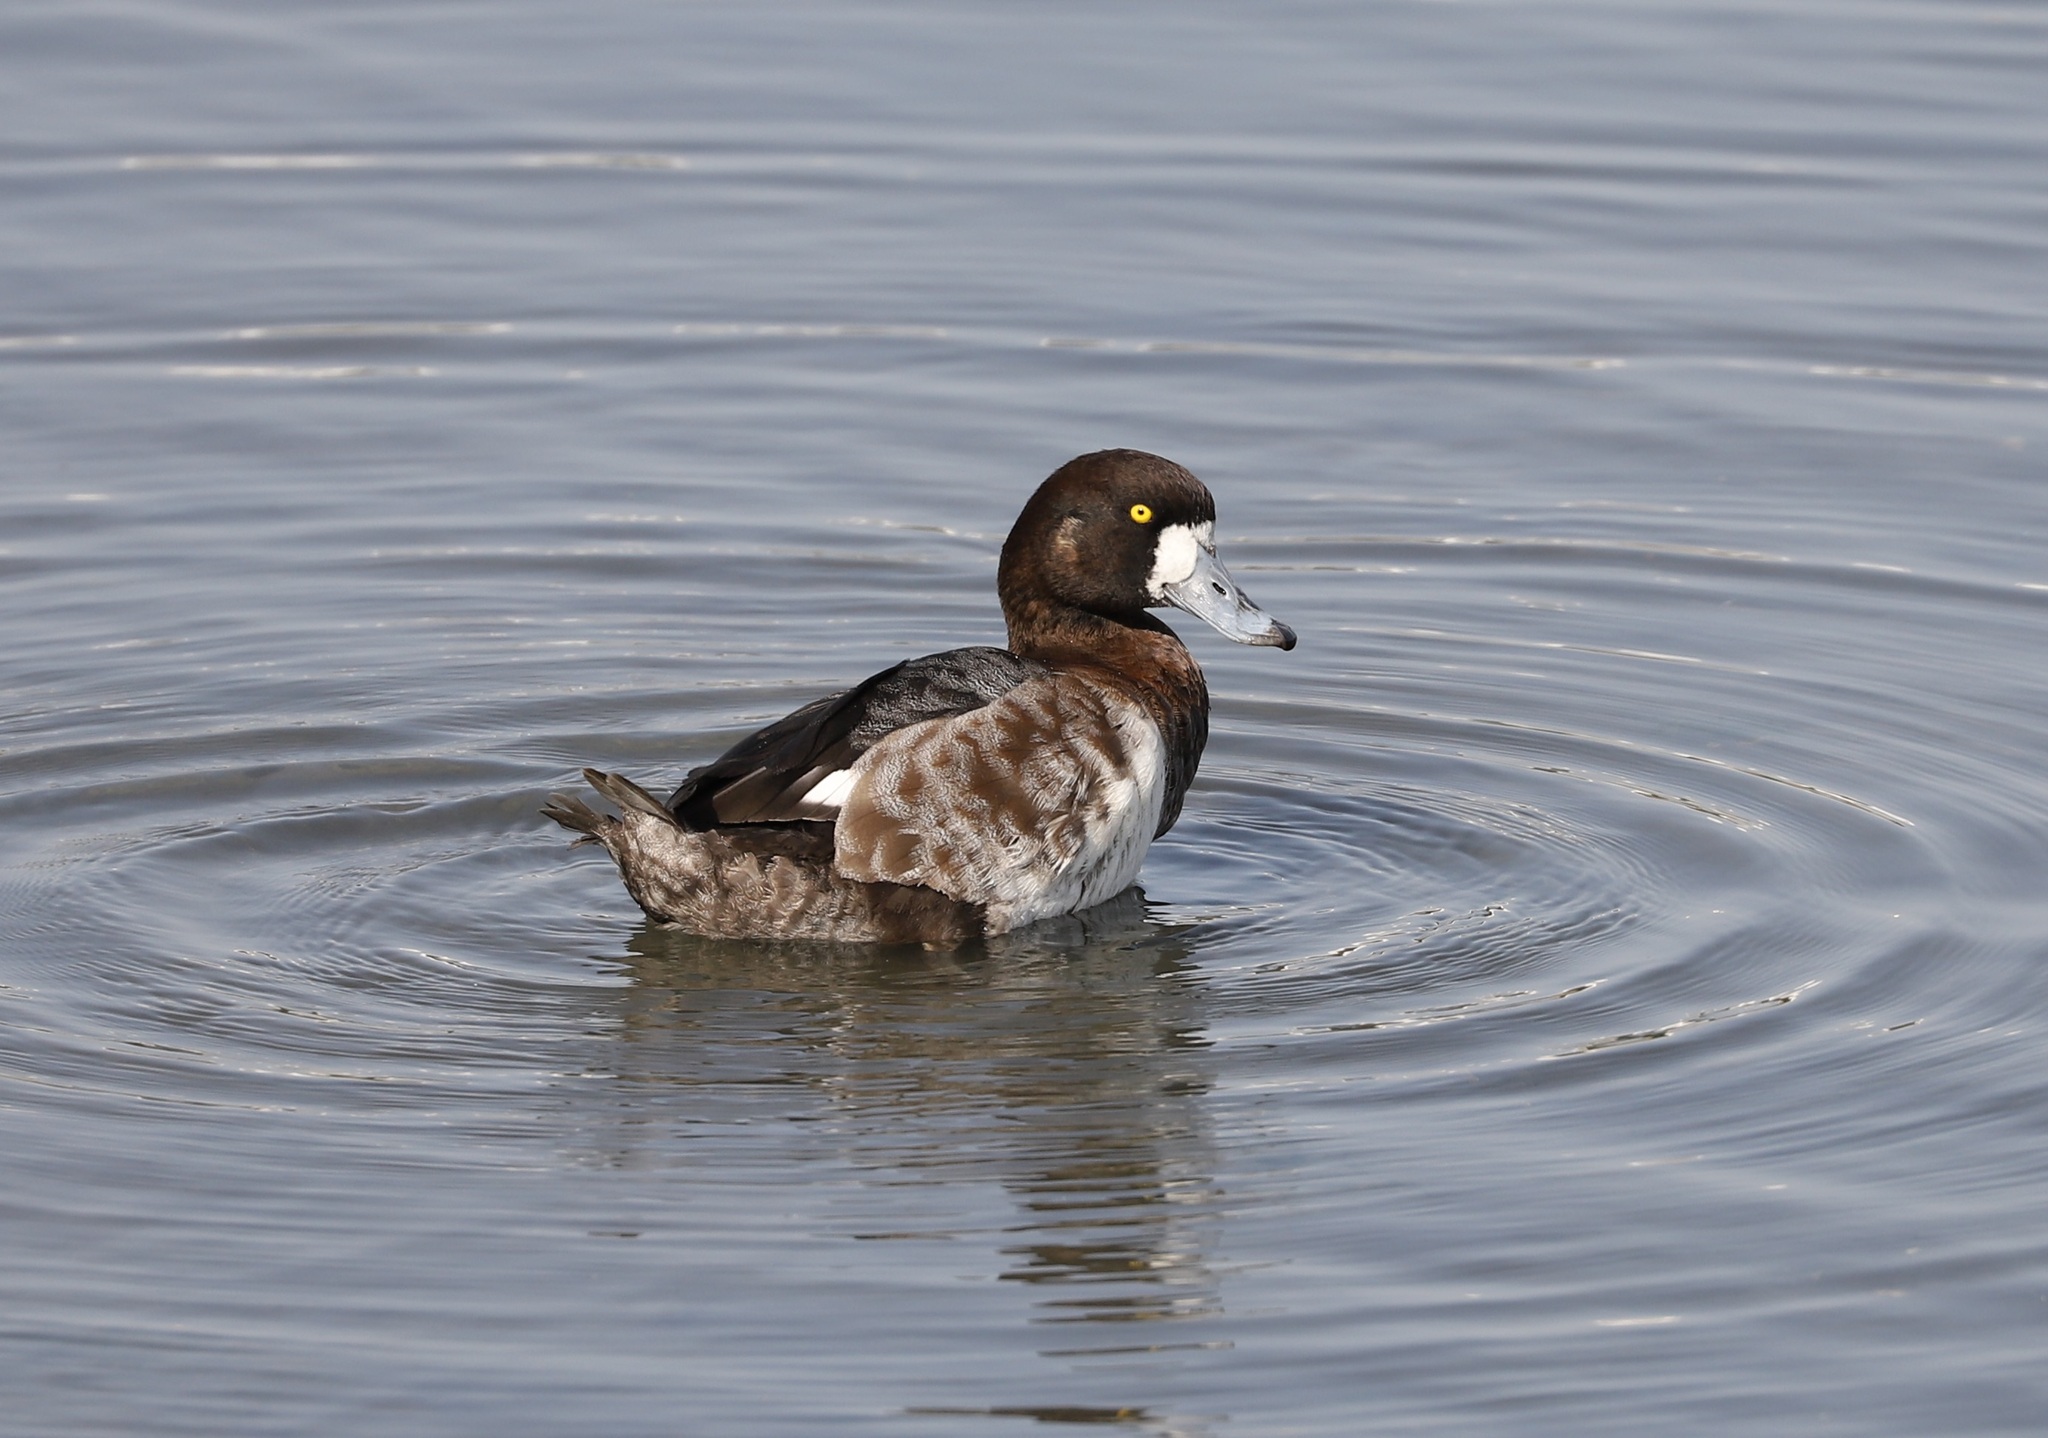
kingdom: Animalia
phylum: Chordata
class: Aves
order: Anseriformes
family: Anatidae
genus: Aythya
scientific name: Aythya marila
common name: Greater scaup
